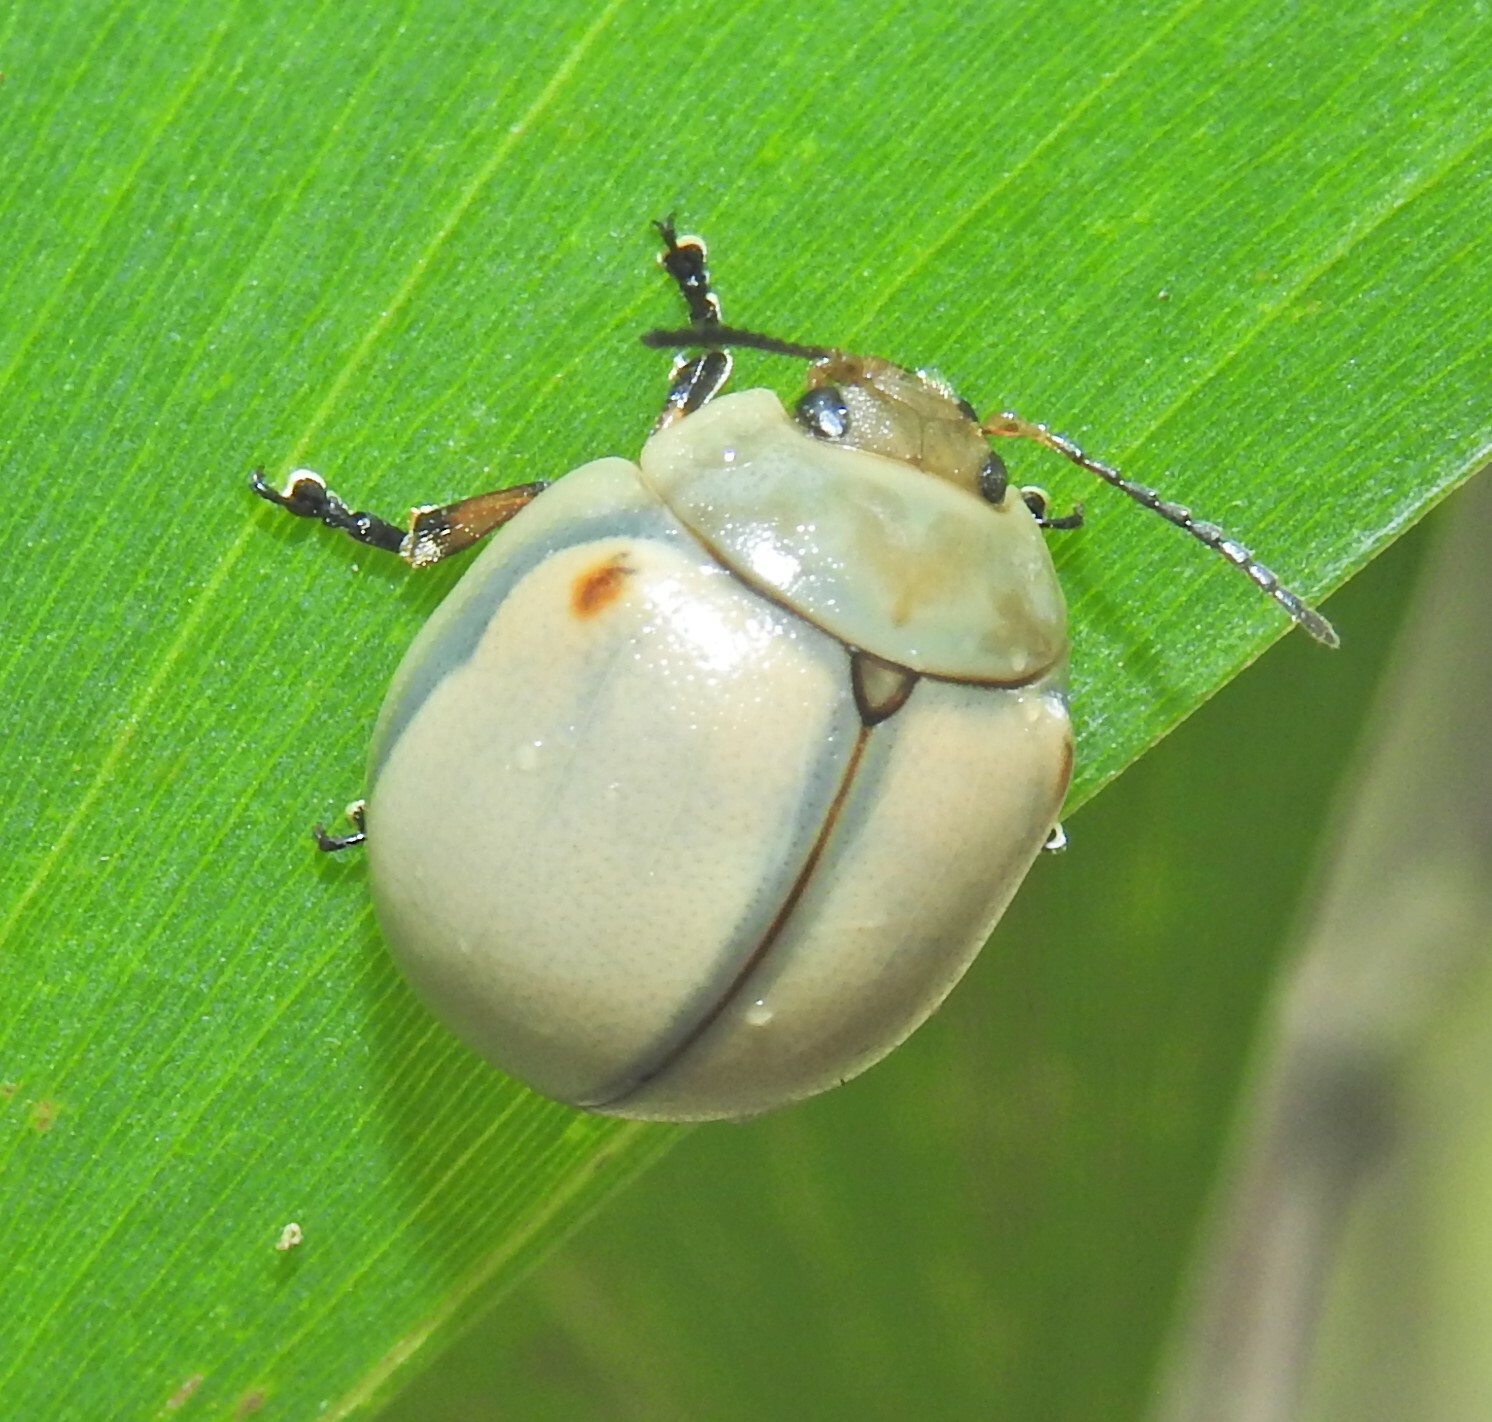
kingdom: Animalia
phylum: Arthropoda
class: Insecta
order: Coleoptera
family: Chrysomelidae
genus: Dicranosterna
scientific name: Dicranosterna
